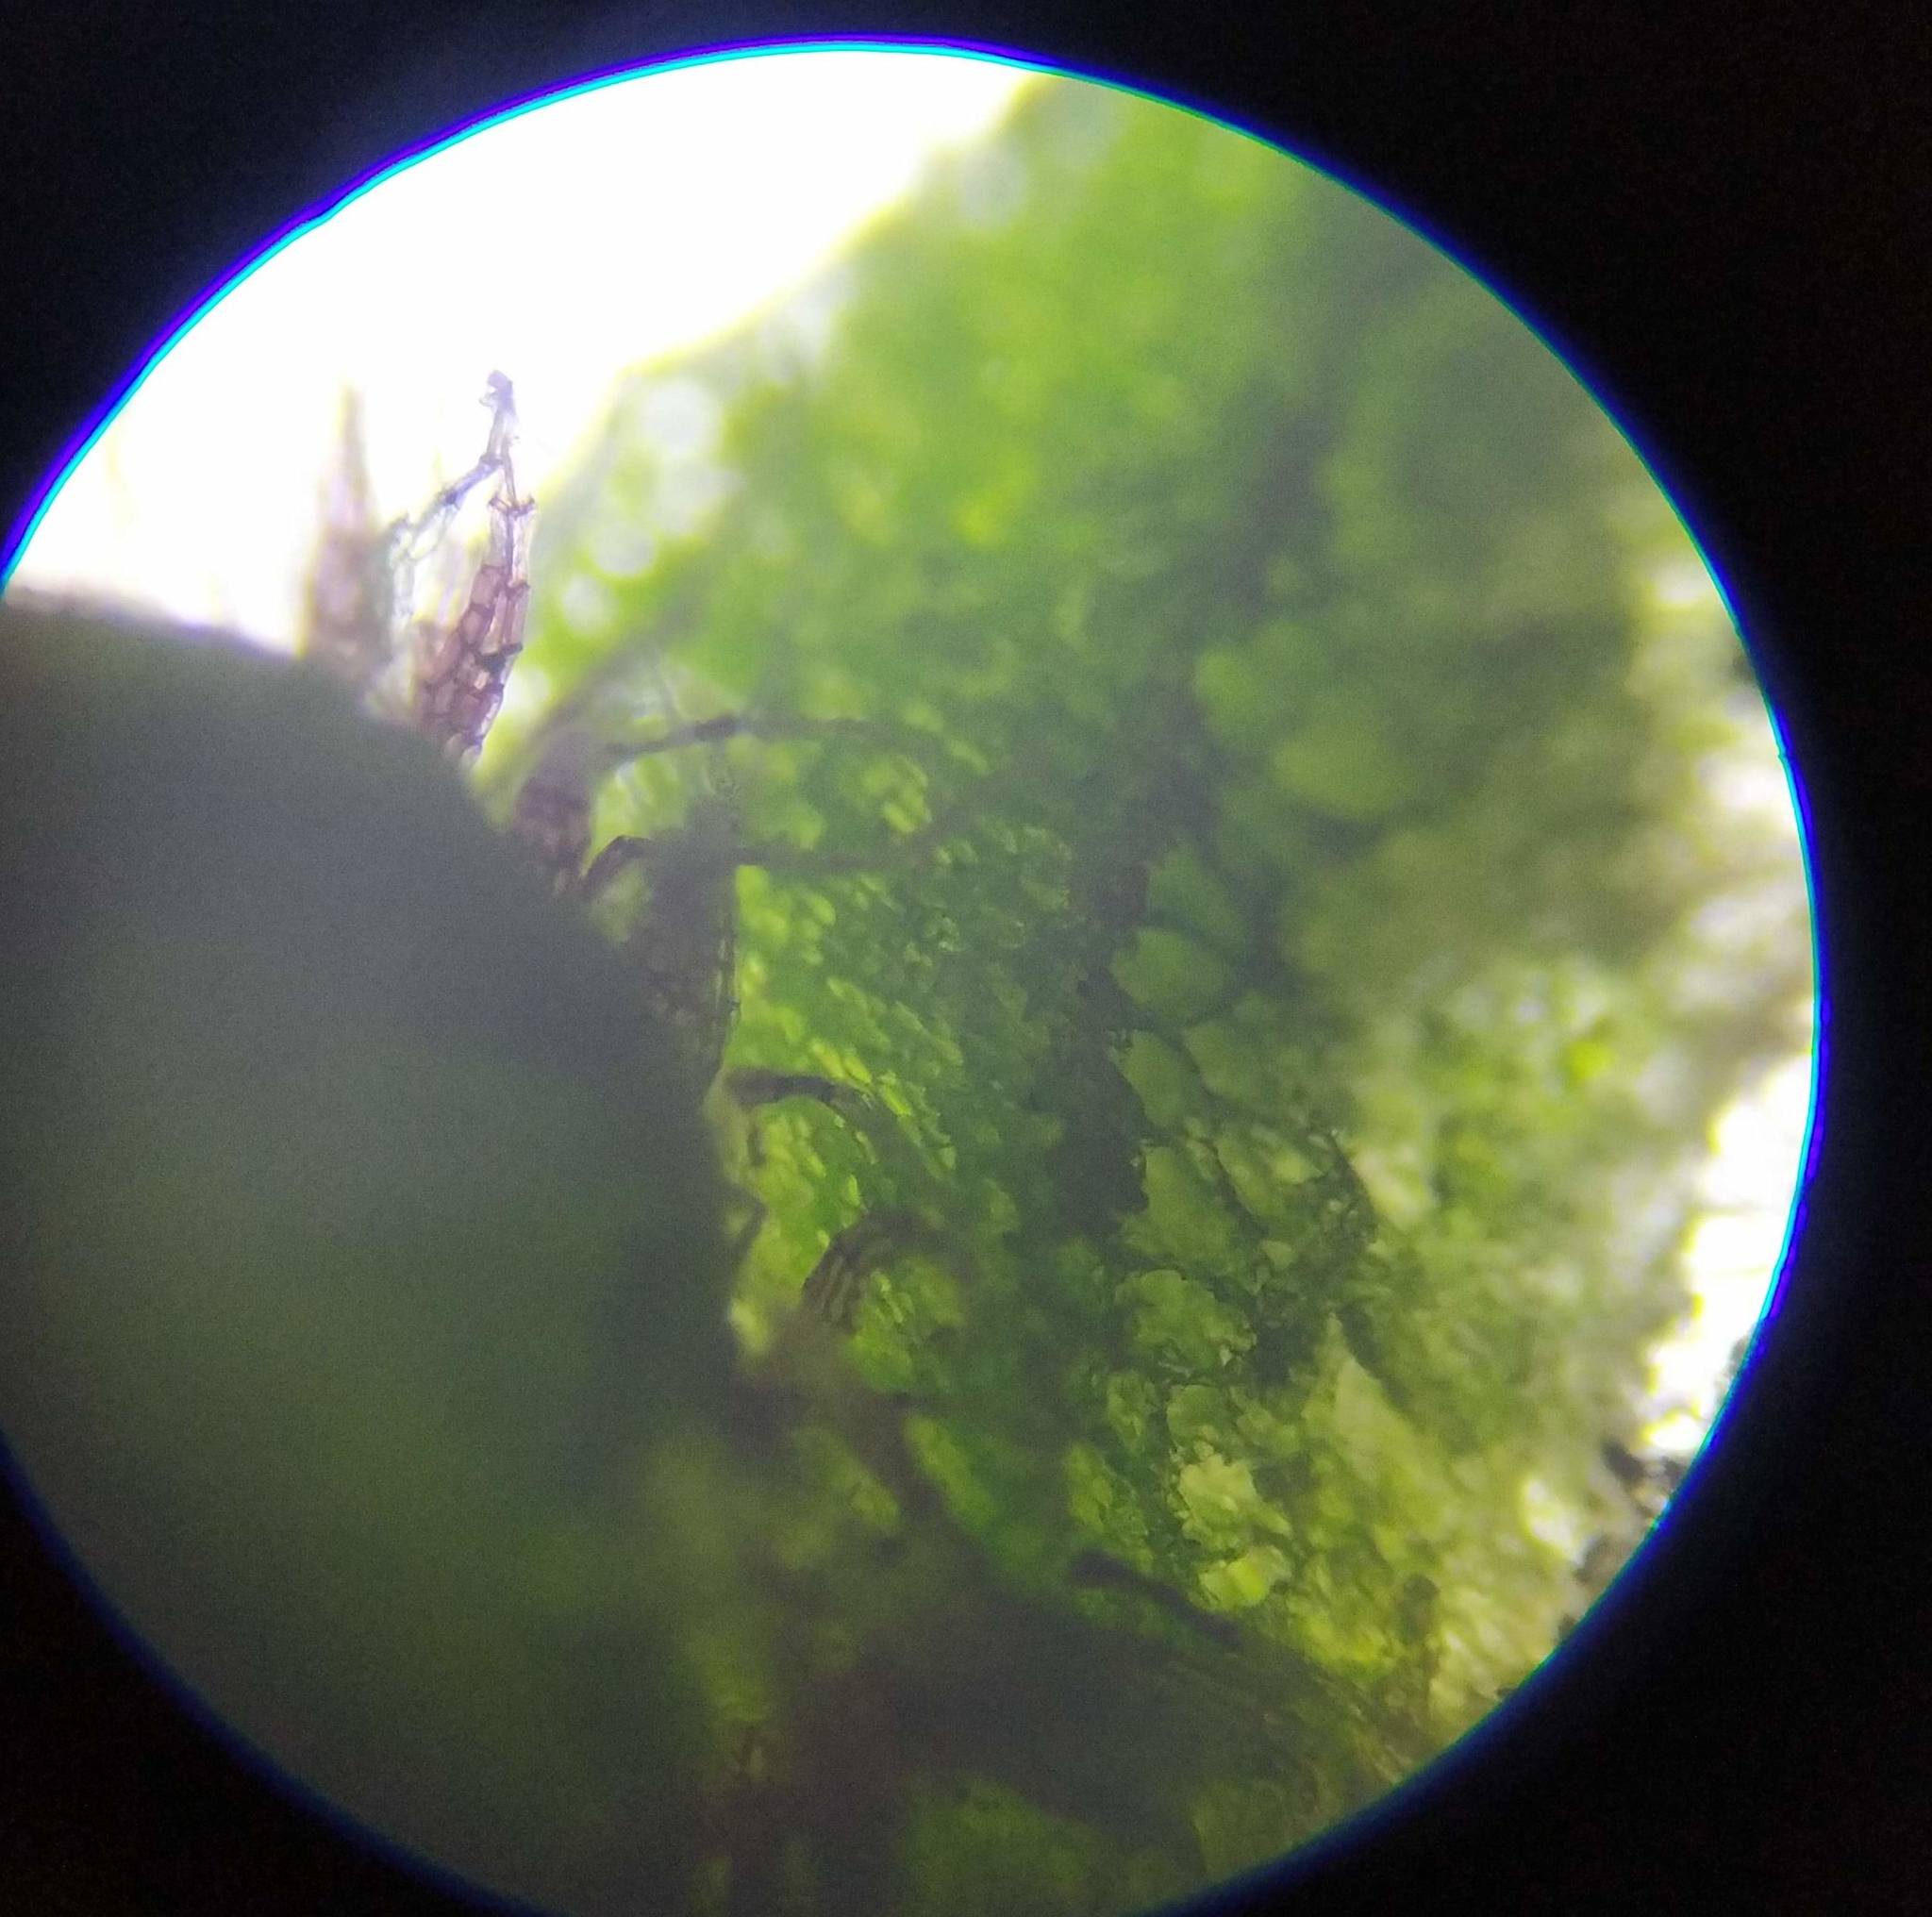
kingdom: Plantae
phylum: Marchantiophyta
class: Marchantiopsida
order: Marchantiales
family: Aytoniaceae
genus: Reboulia
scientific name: Reboulia hemisphaerica
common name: Purple-margined liverwort
